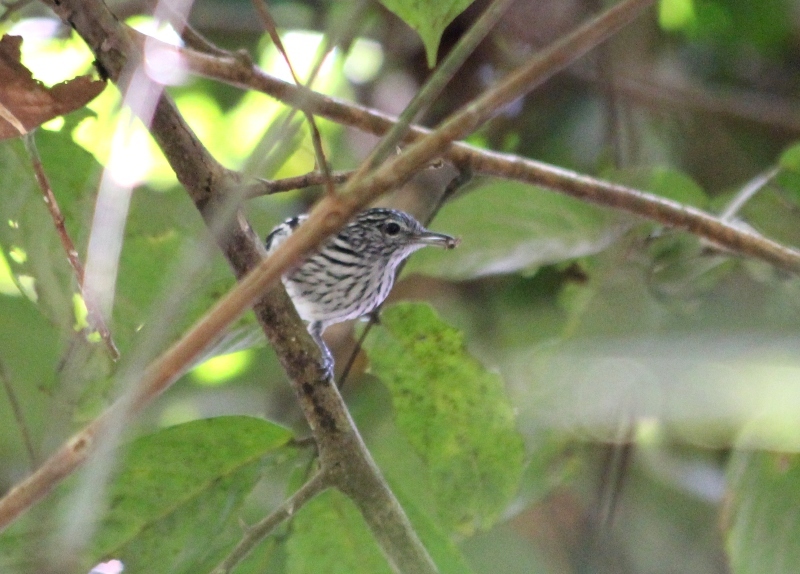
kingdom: Animalia
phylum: Chordata
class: Aves
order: Passeriformes
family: Thamnophilidae
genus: Myrmotherula
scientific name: Myrmotherula multostriata
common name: Amazonian streaked antwren
